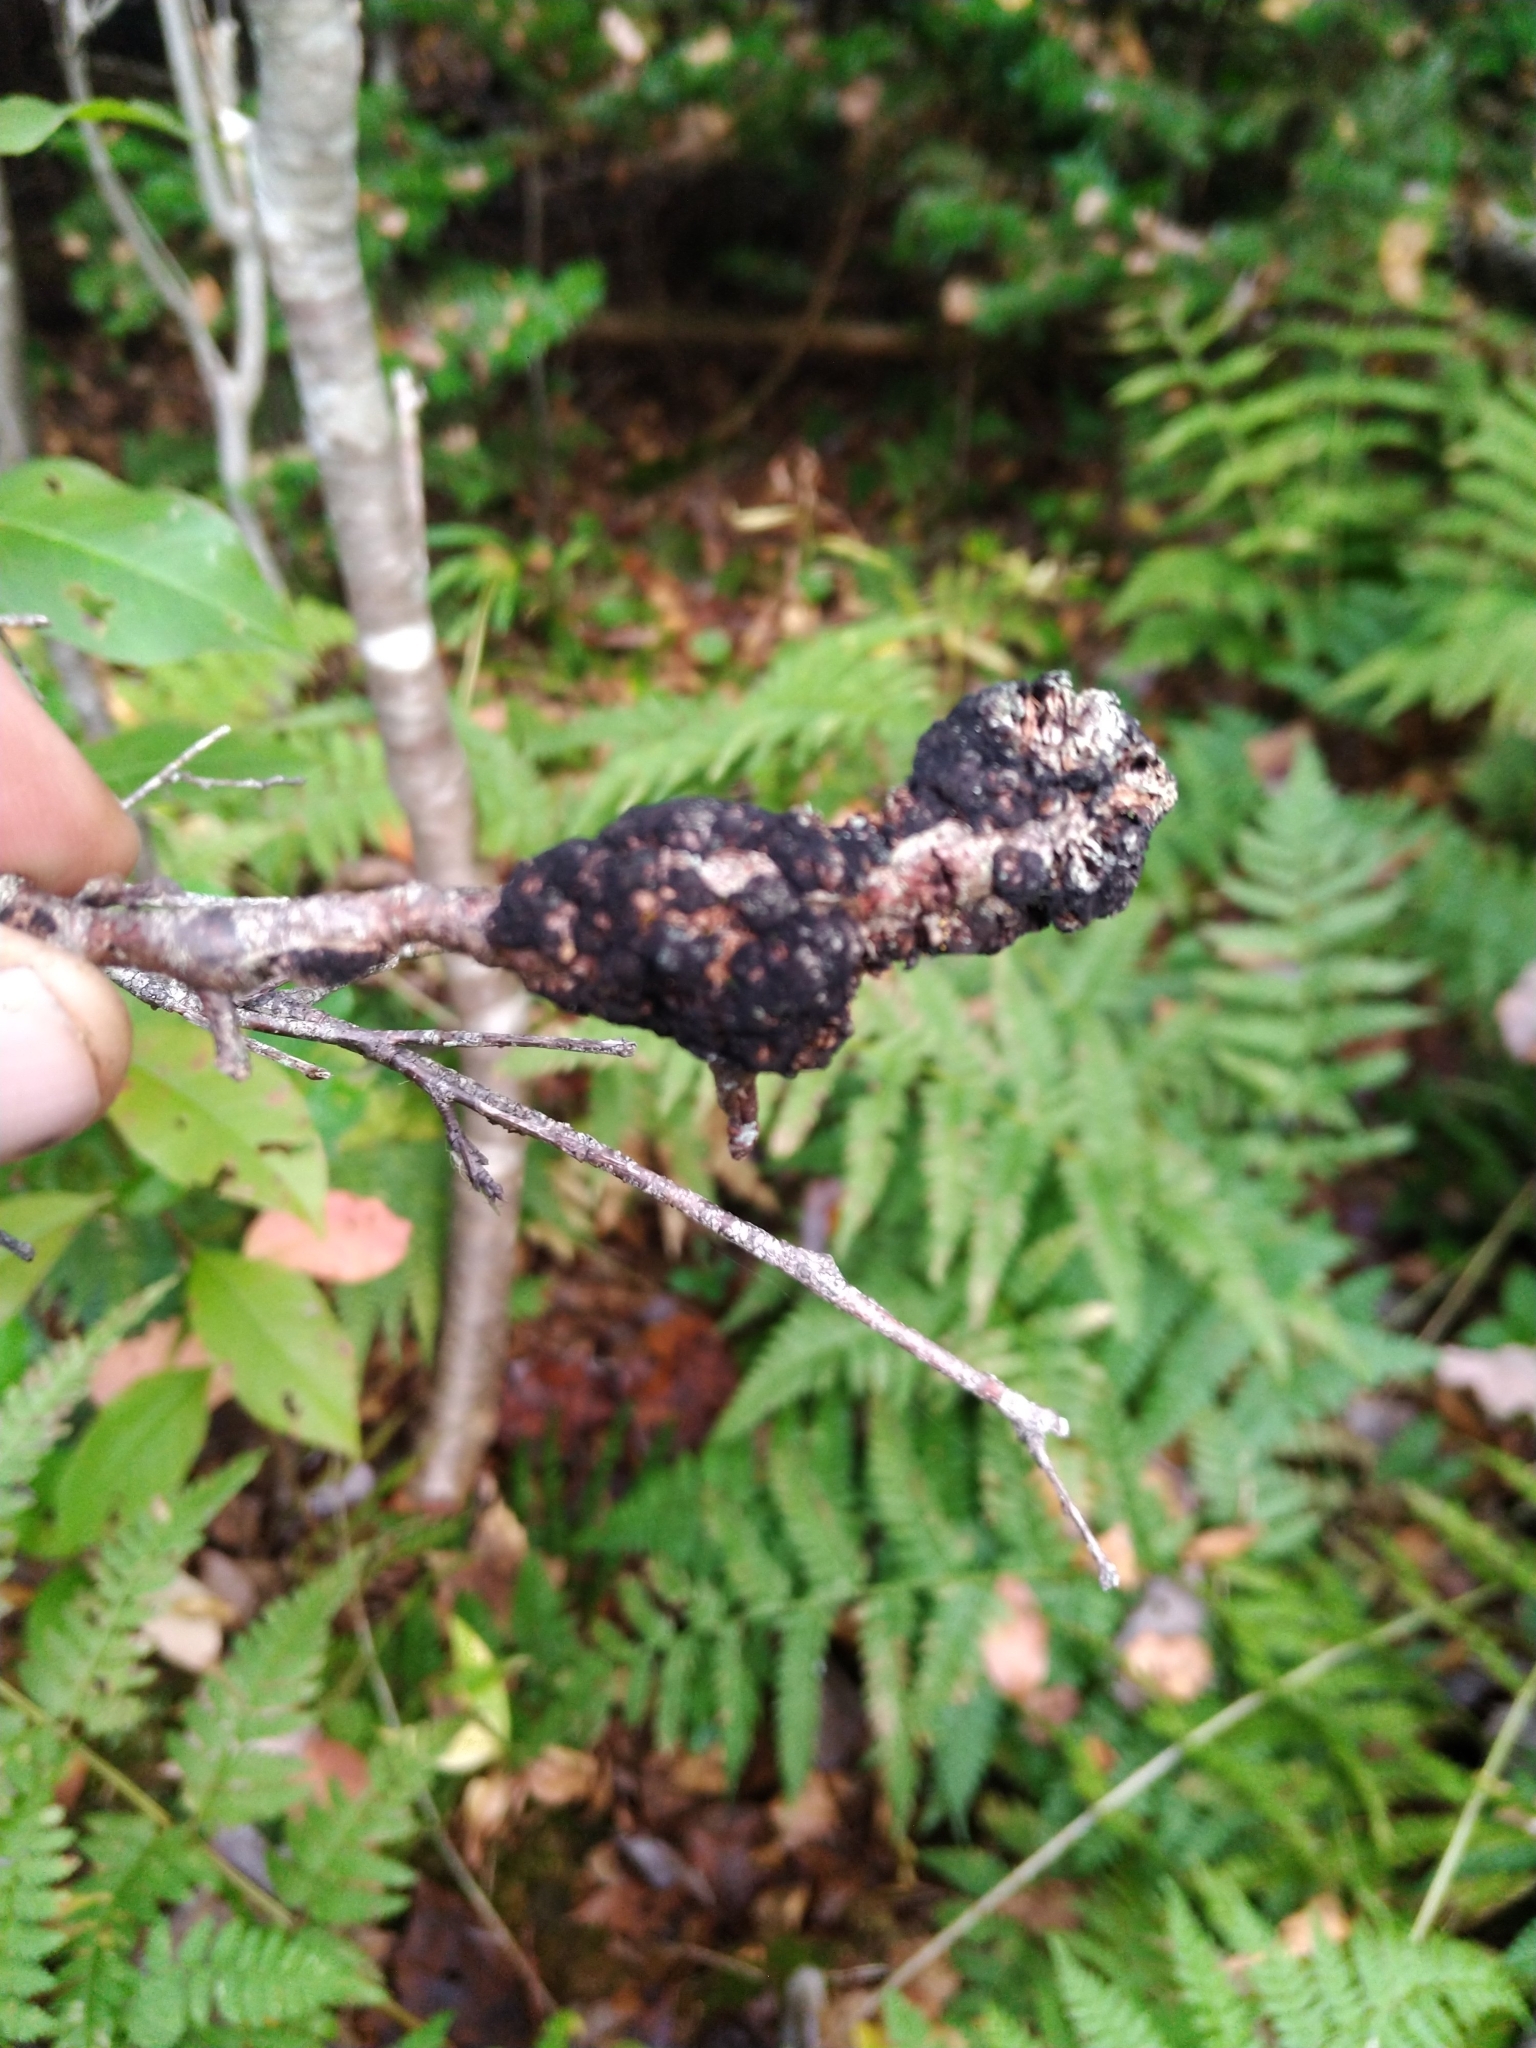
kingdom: Fungi
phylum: Ascomycota
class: Dothideomycetes
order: Venturiales
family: Venturiaceae
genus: Apiosporina
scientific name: Apiosporina morbosa
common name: Black knot
